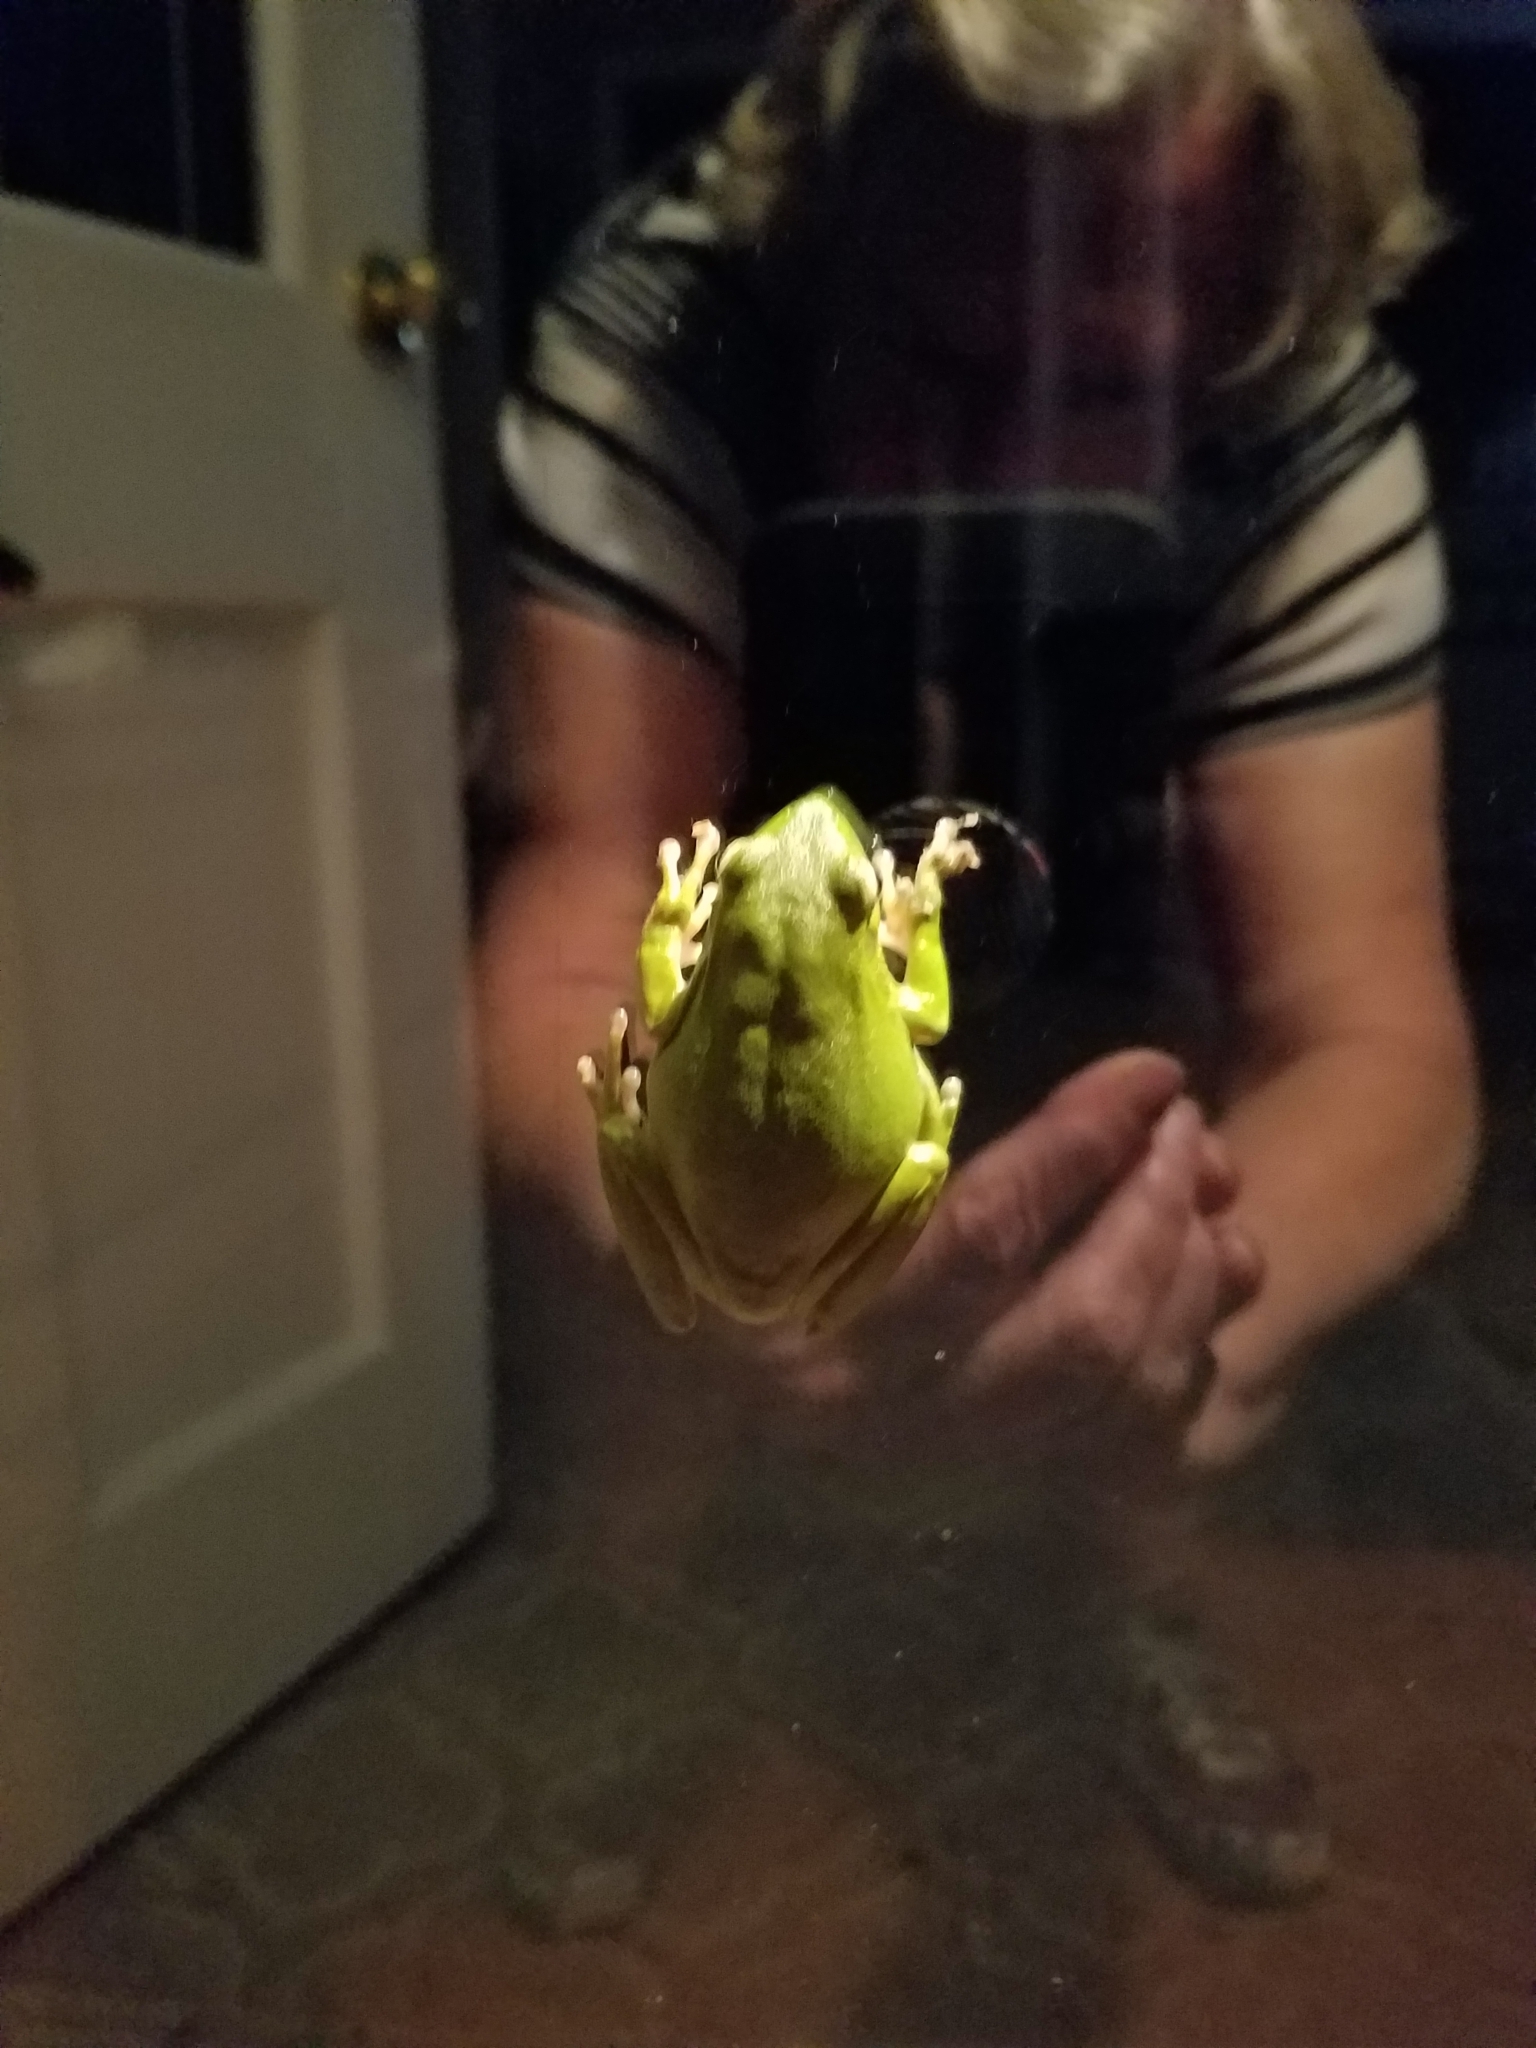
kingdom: Animalia
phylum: Chordata
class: Amphibia
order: Anura
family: Hylidae
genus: Dryophytes
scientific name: Dryophytes cinereus
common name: Green treefrog
